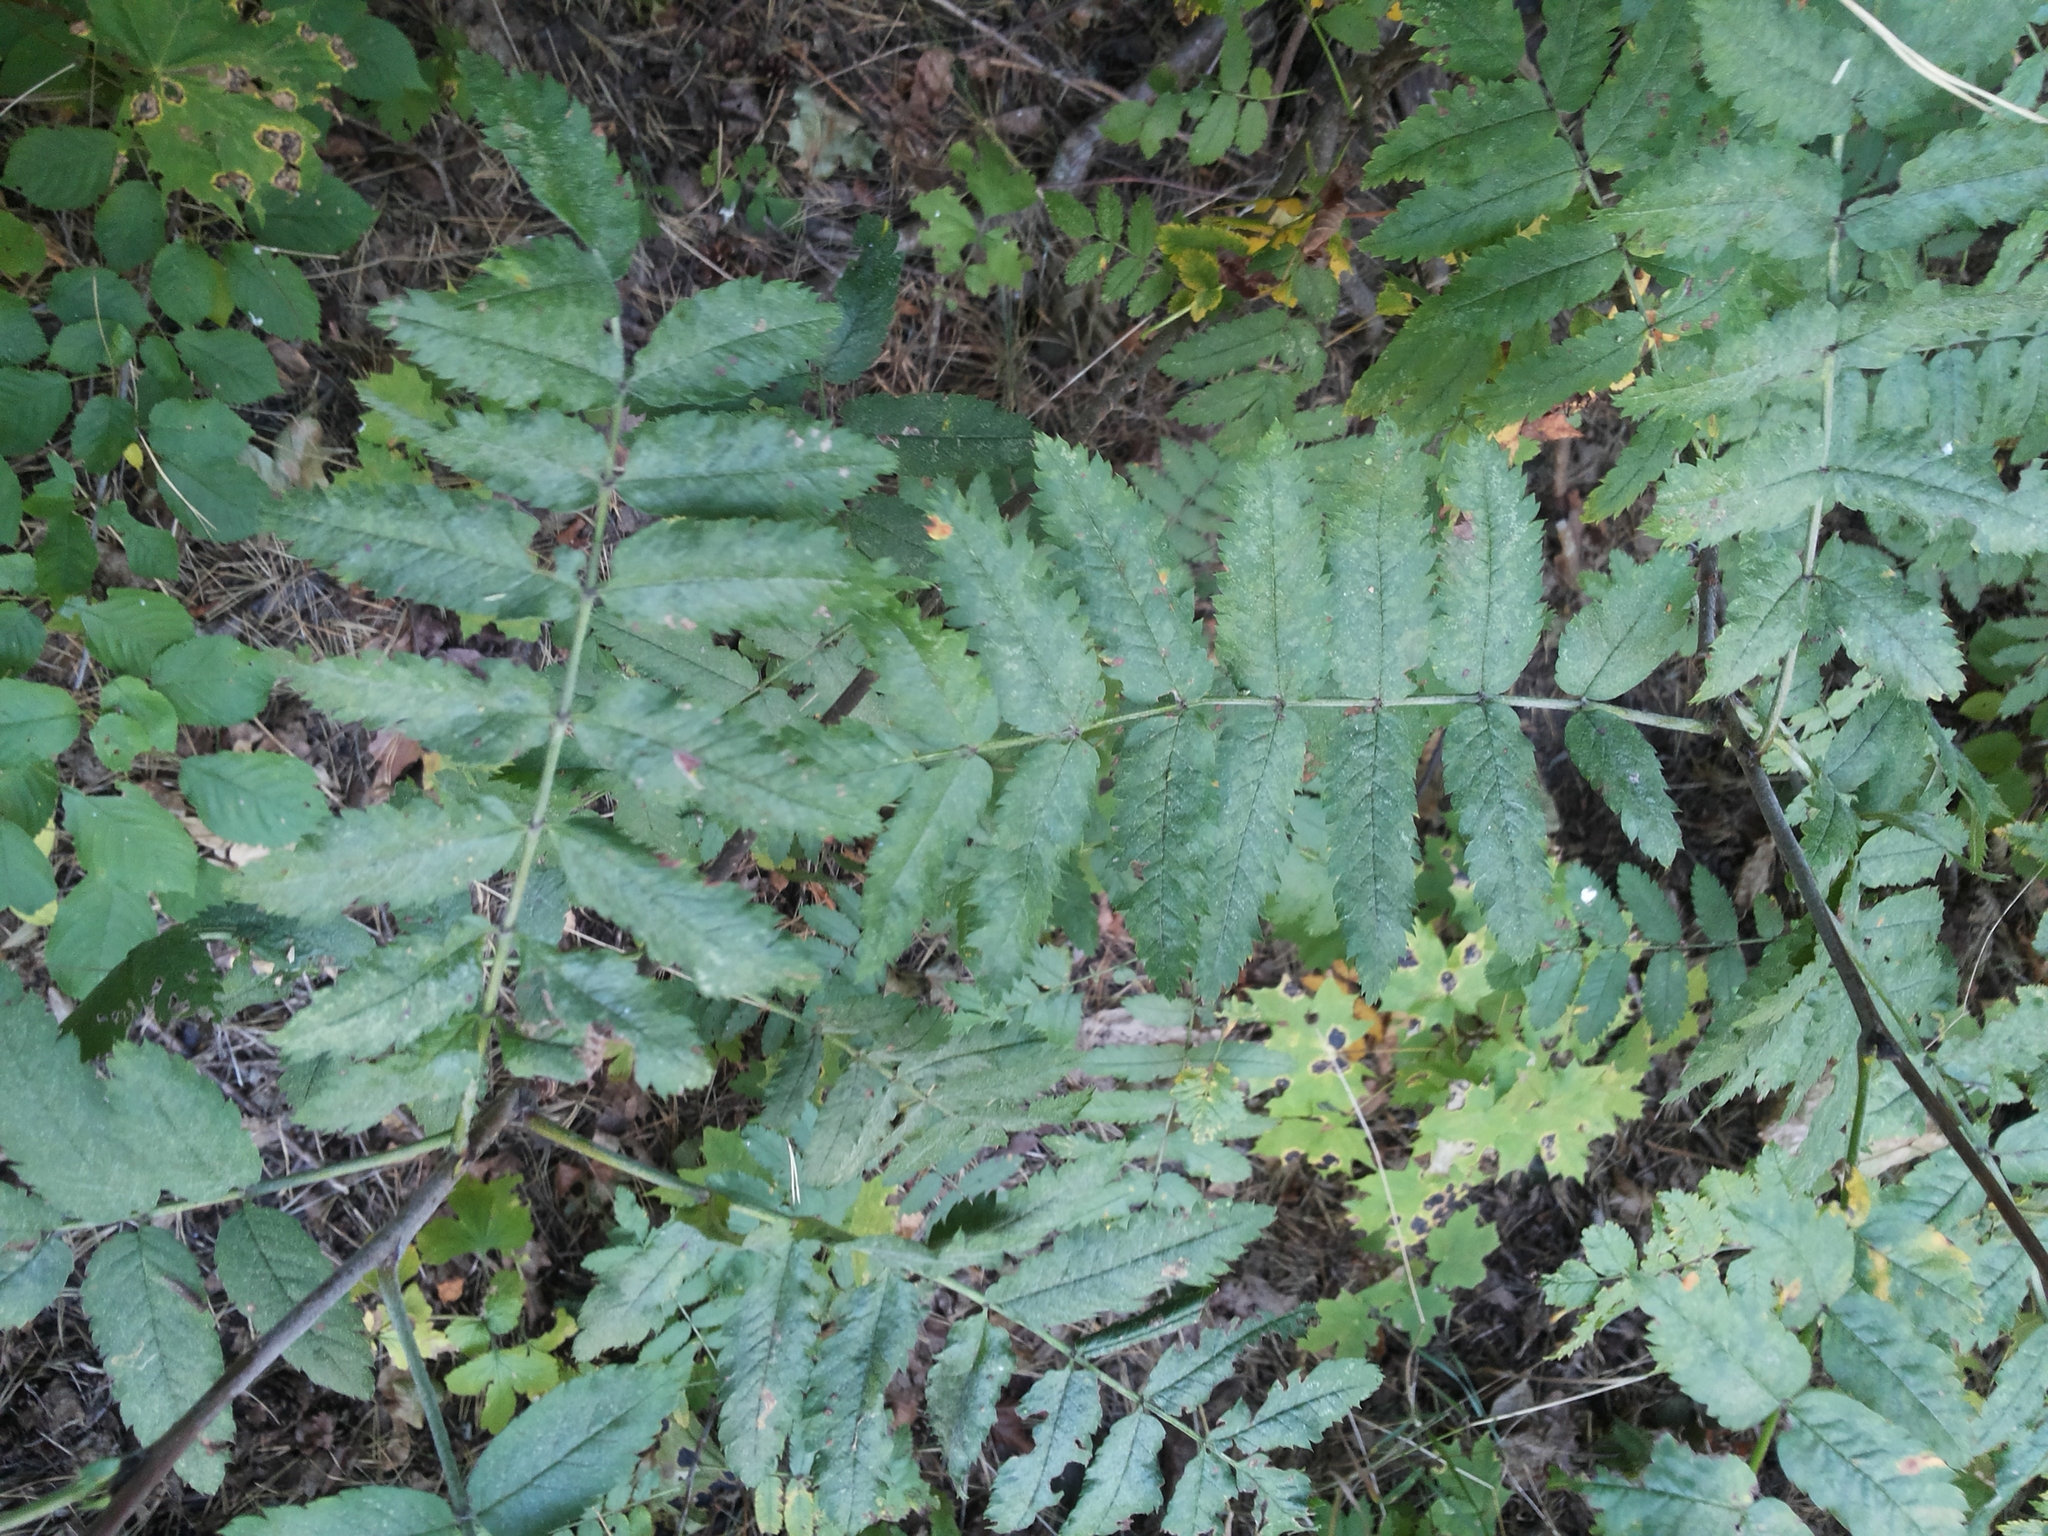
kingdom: Plantae
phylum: Tracheophyta
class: Magnoliopsida
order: Rosales
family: Rosaceae
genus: Sorbus
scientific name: Sorbus aucuparia
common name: Rowan
